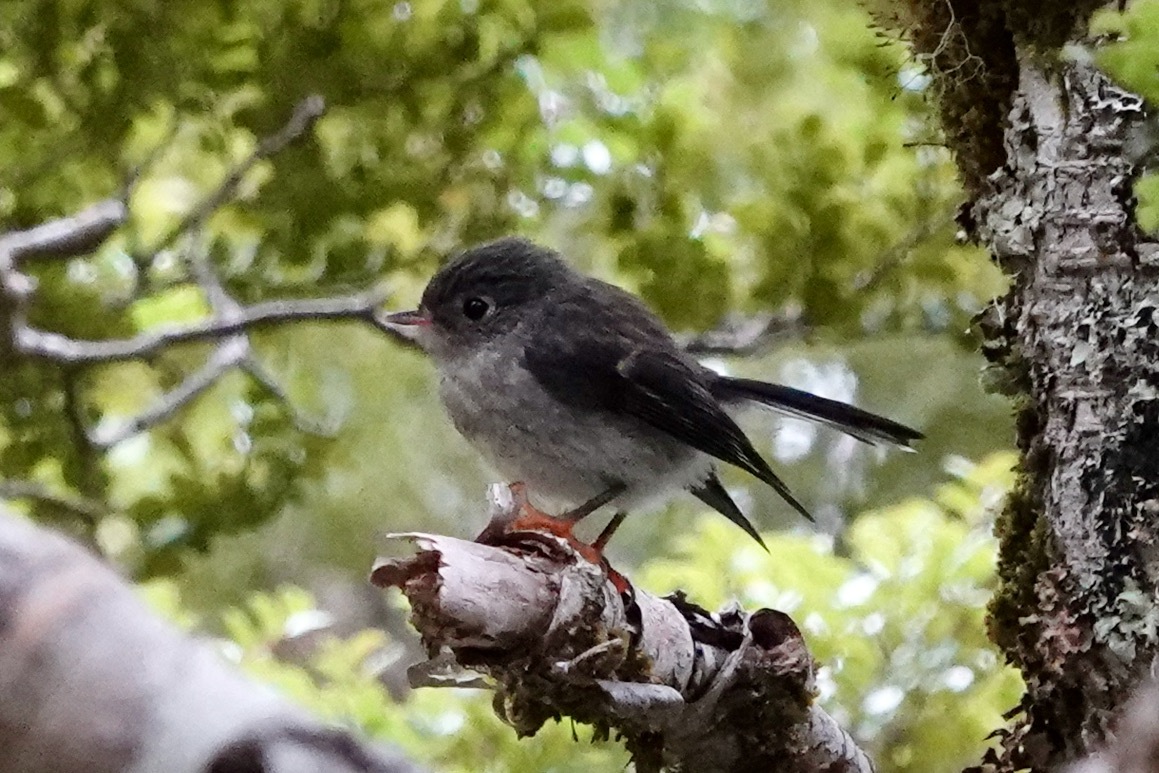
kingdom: Animalia
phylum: Chordata
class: Aves
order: Passeriformes
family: Petroicidae
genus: Petroica
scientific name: Petroica macrocephala
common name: Tomtit
